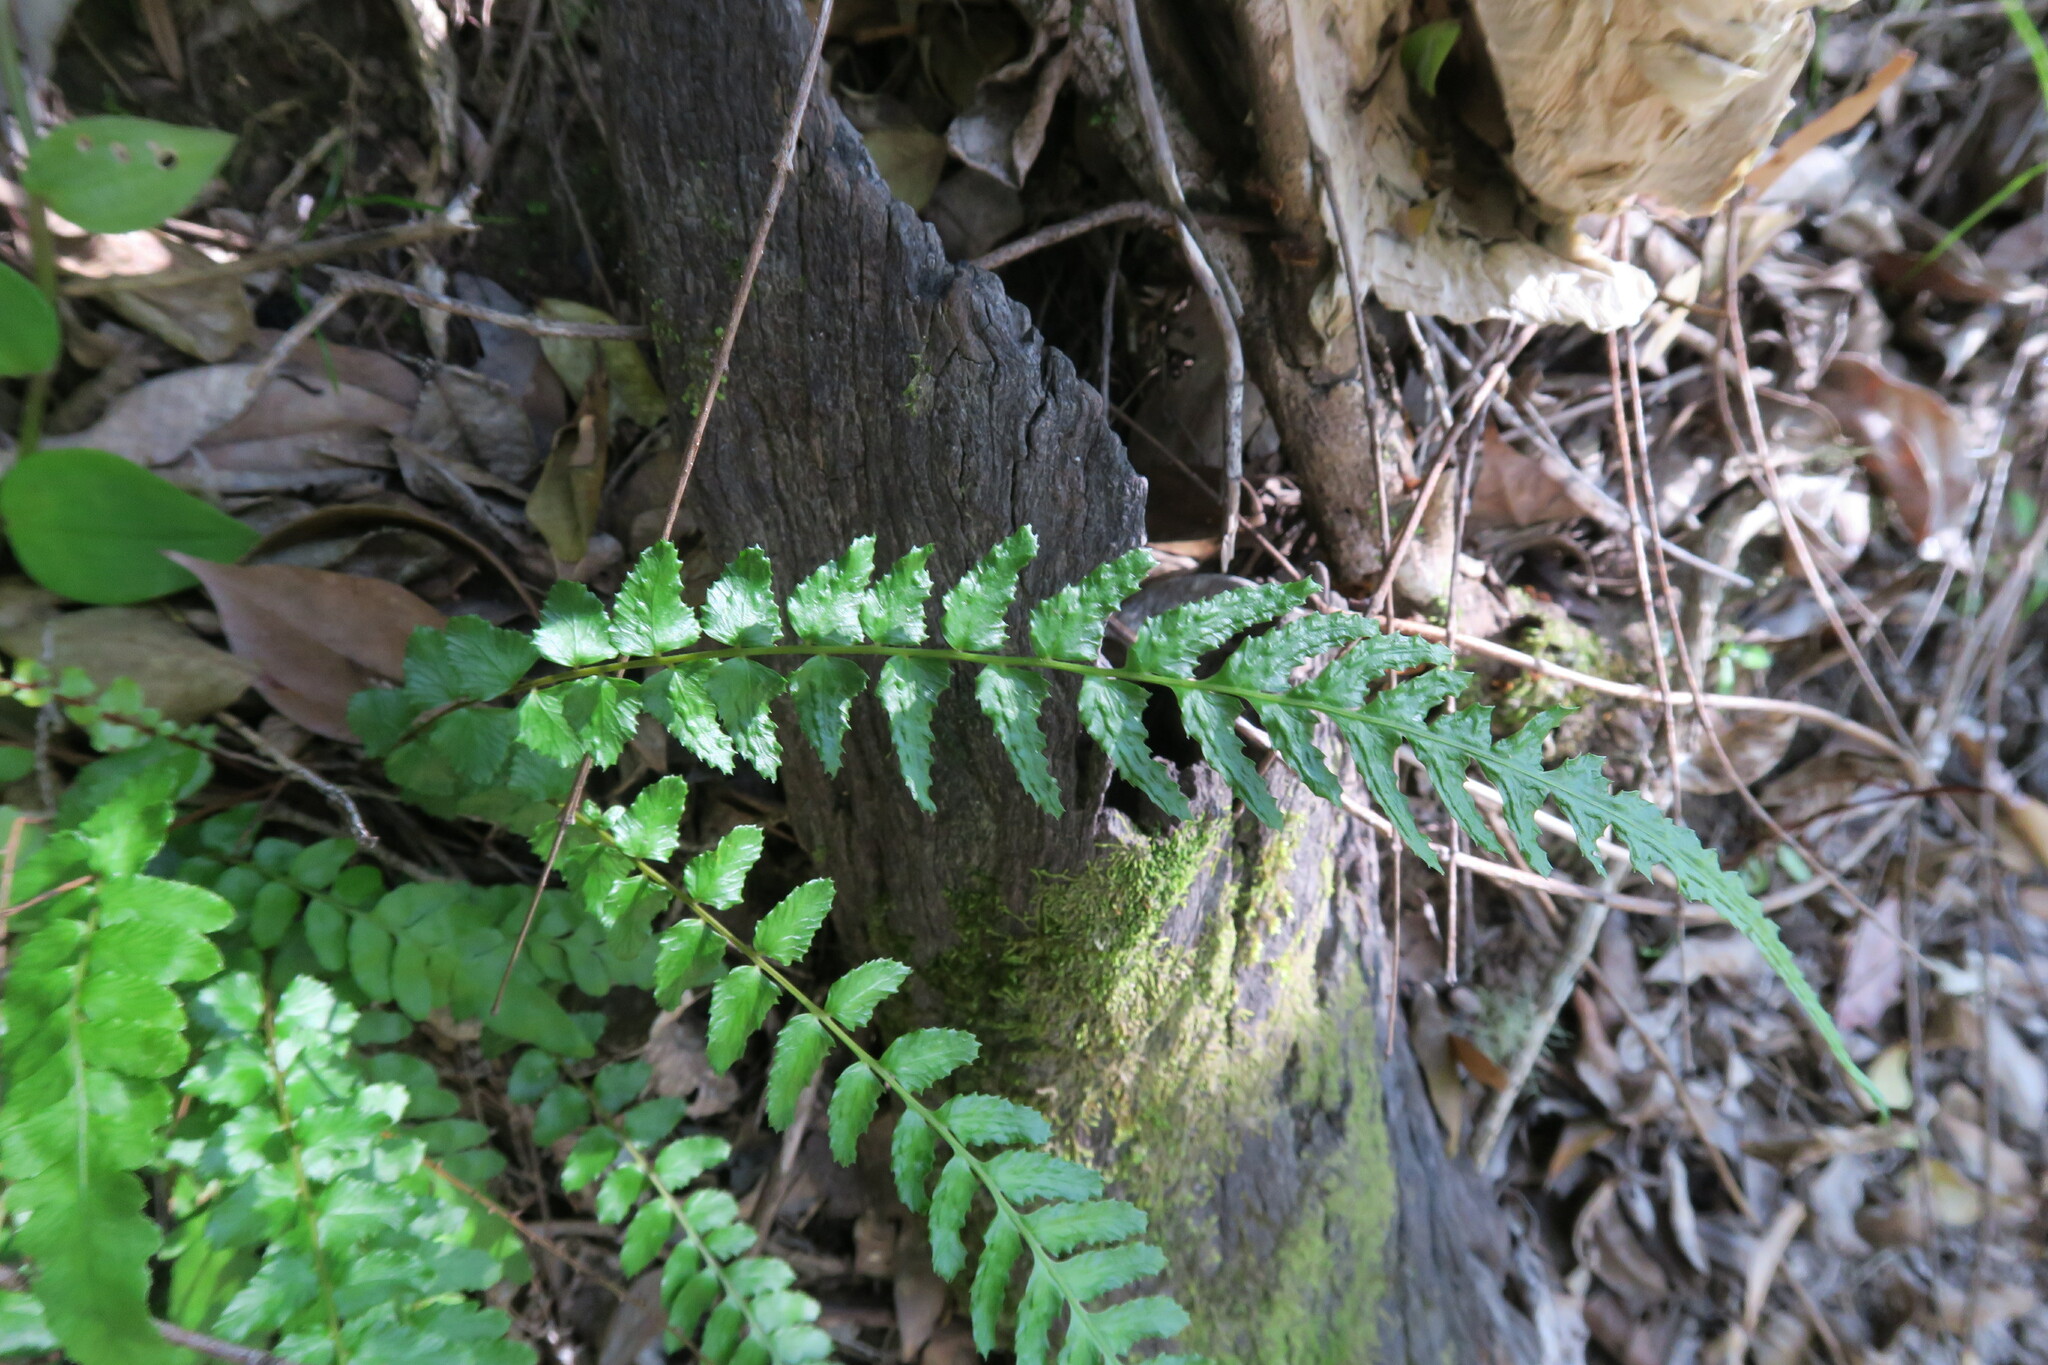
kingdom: Plantae
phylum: Tracheophyta
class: Polypodiopsida
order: Polypodiales
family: Blechnaceae
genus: Doodia
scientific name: Doodia caudata
